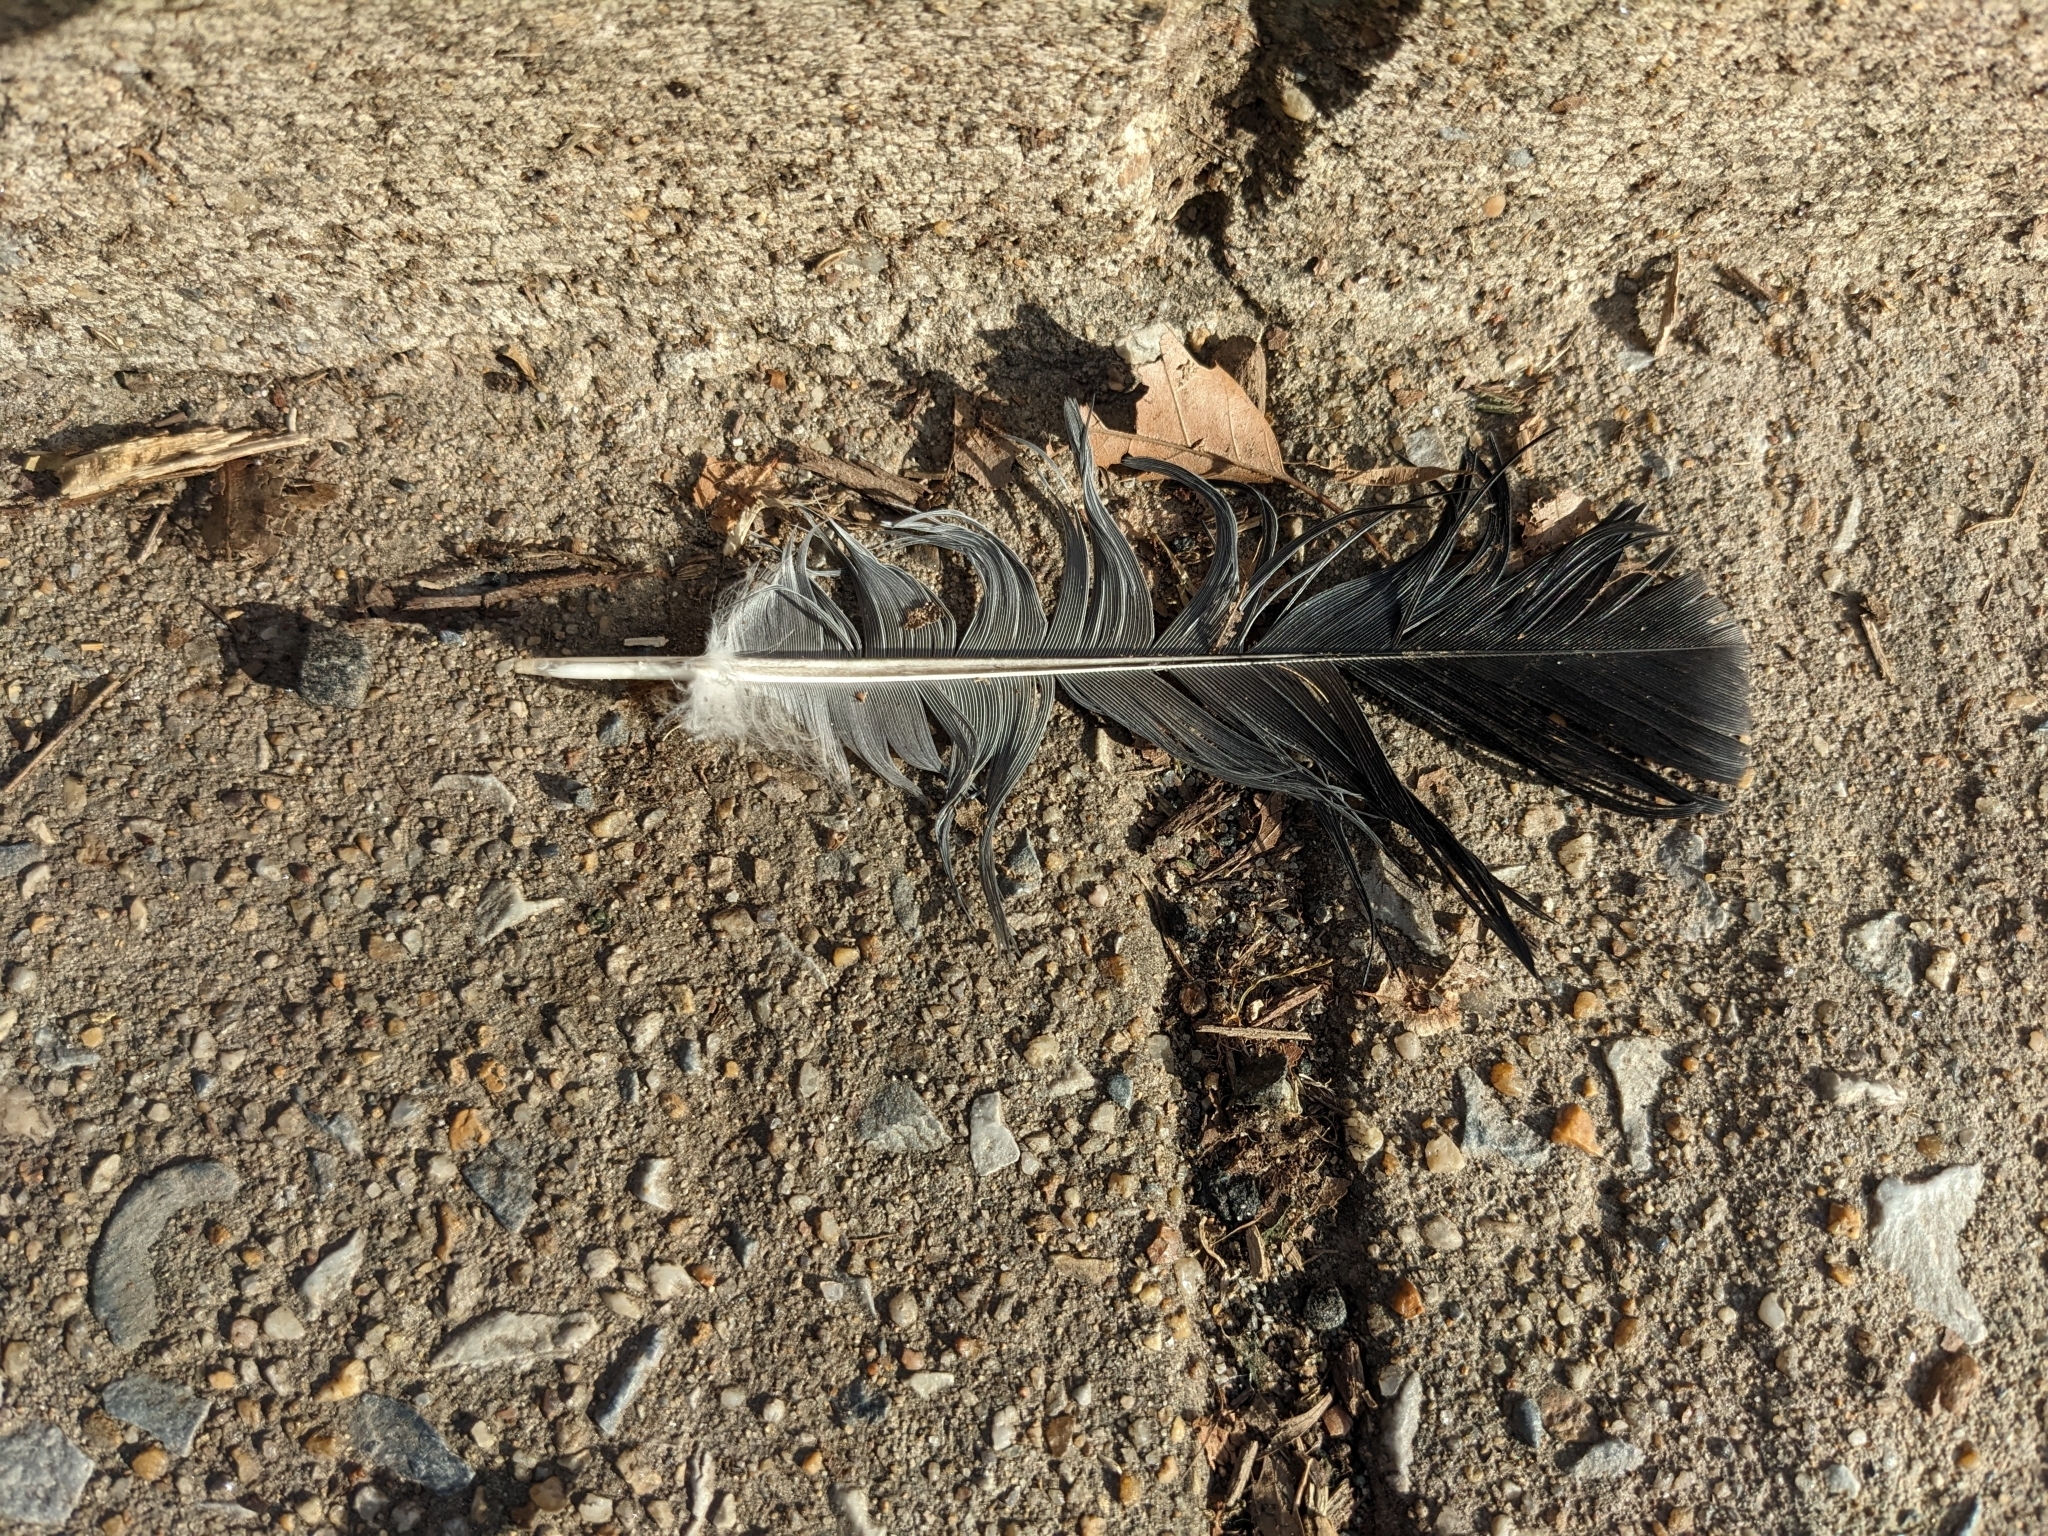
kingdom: Animalia
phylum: Chordata
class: Aves
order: Columbiformes
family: Columbidae
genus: Columba
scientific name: Columba livia
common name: Rock pigeon
